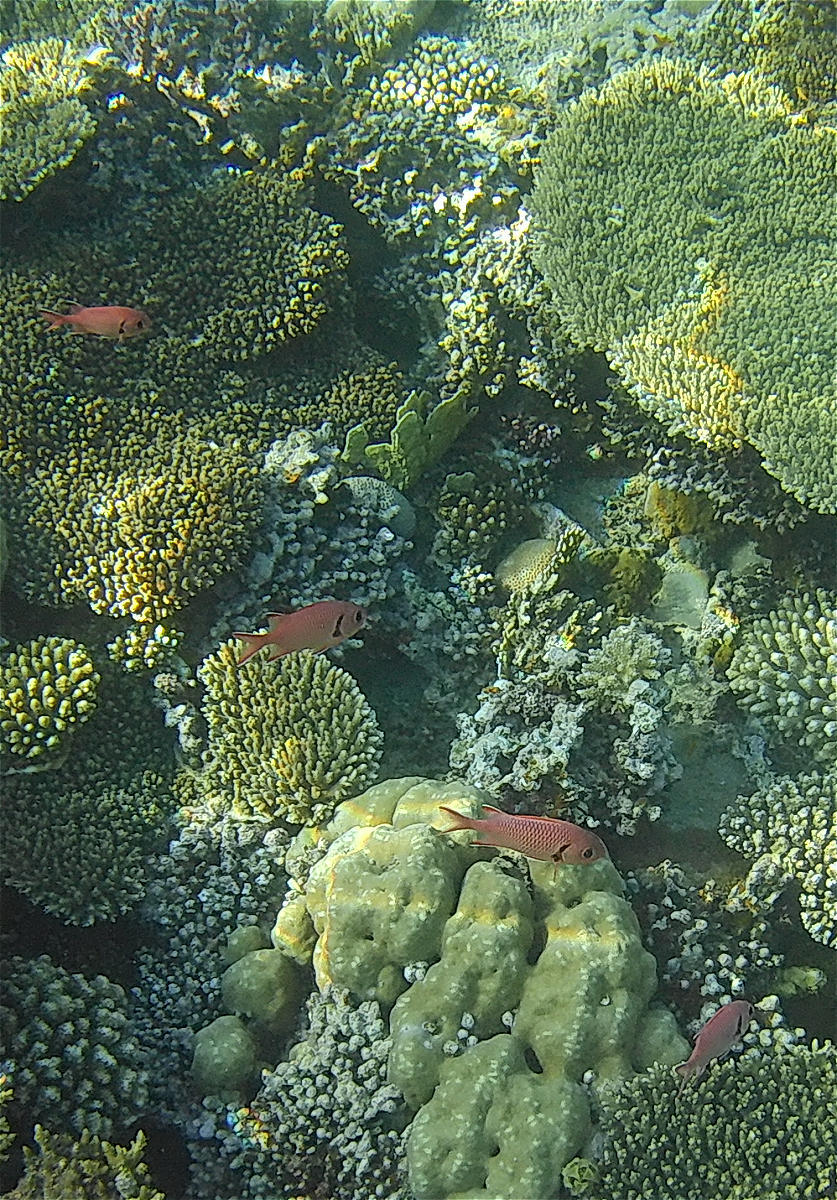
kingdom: Animalia
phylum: Chordata
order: Beryciformes
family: Holocentridae
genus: Myripristis
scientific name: Myripristis murdjan
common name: Big-eye soldierfish
